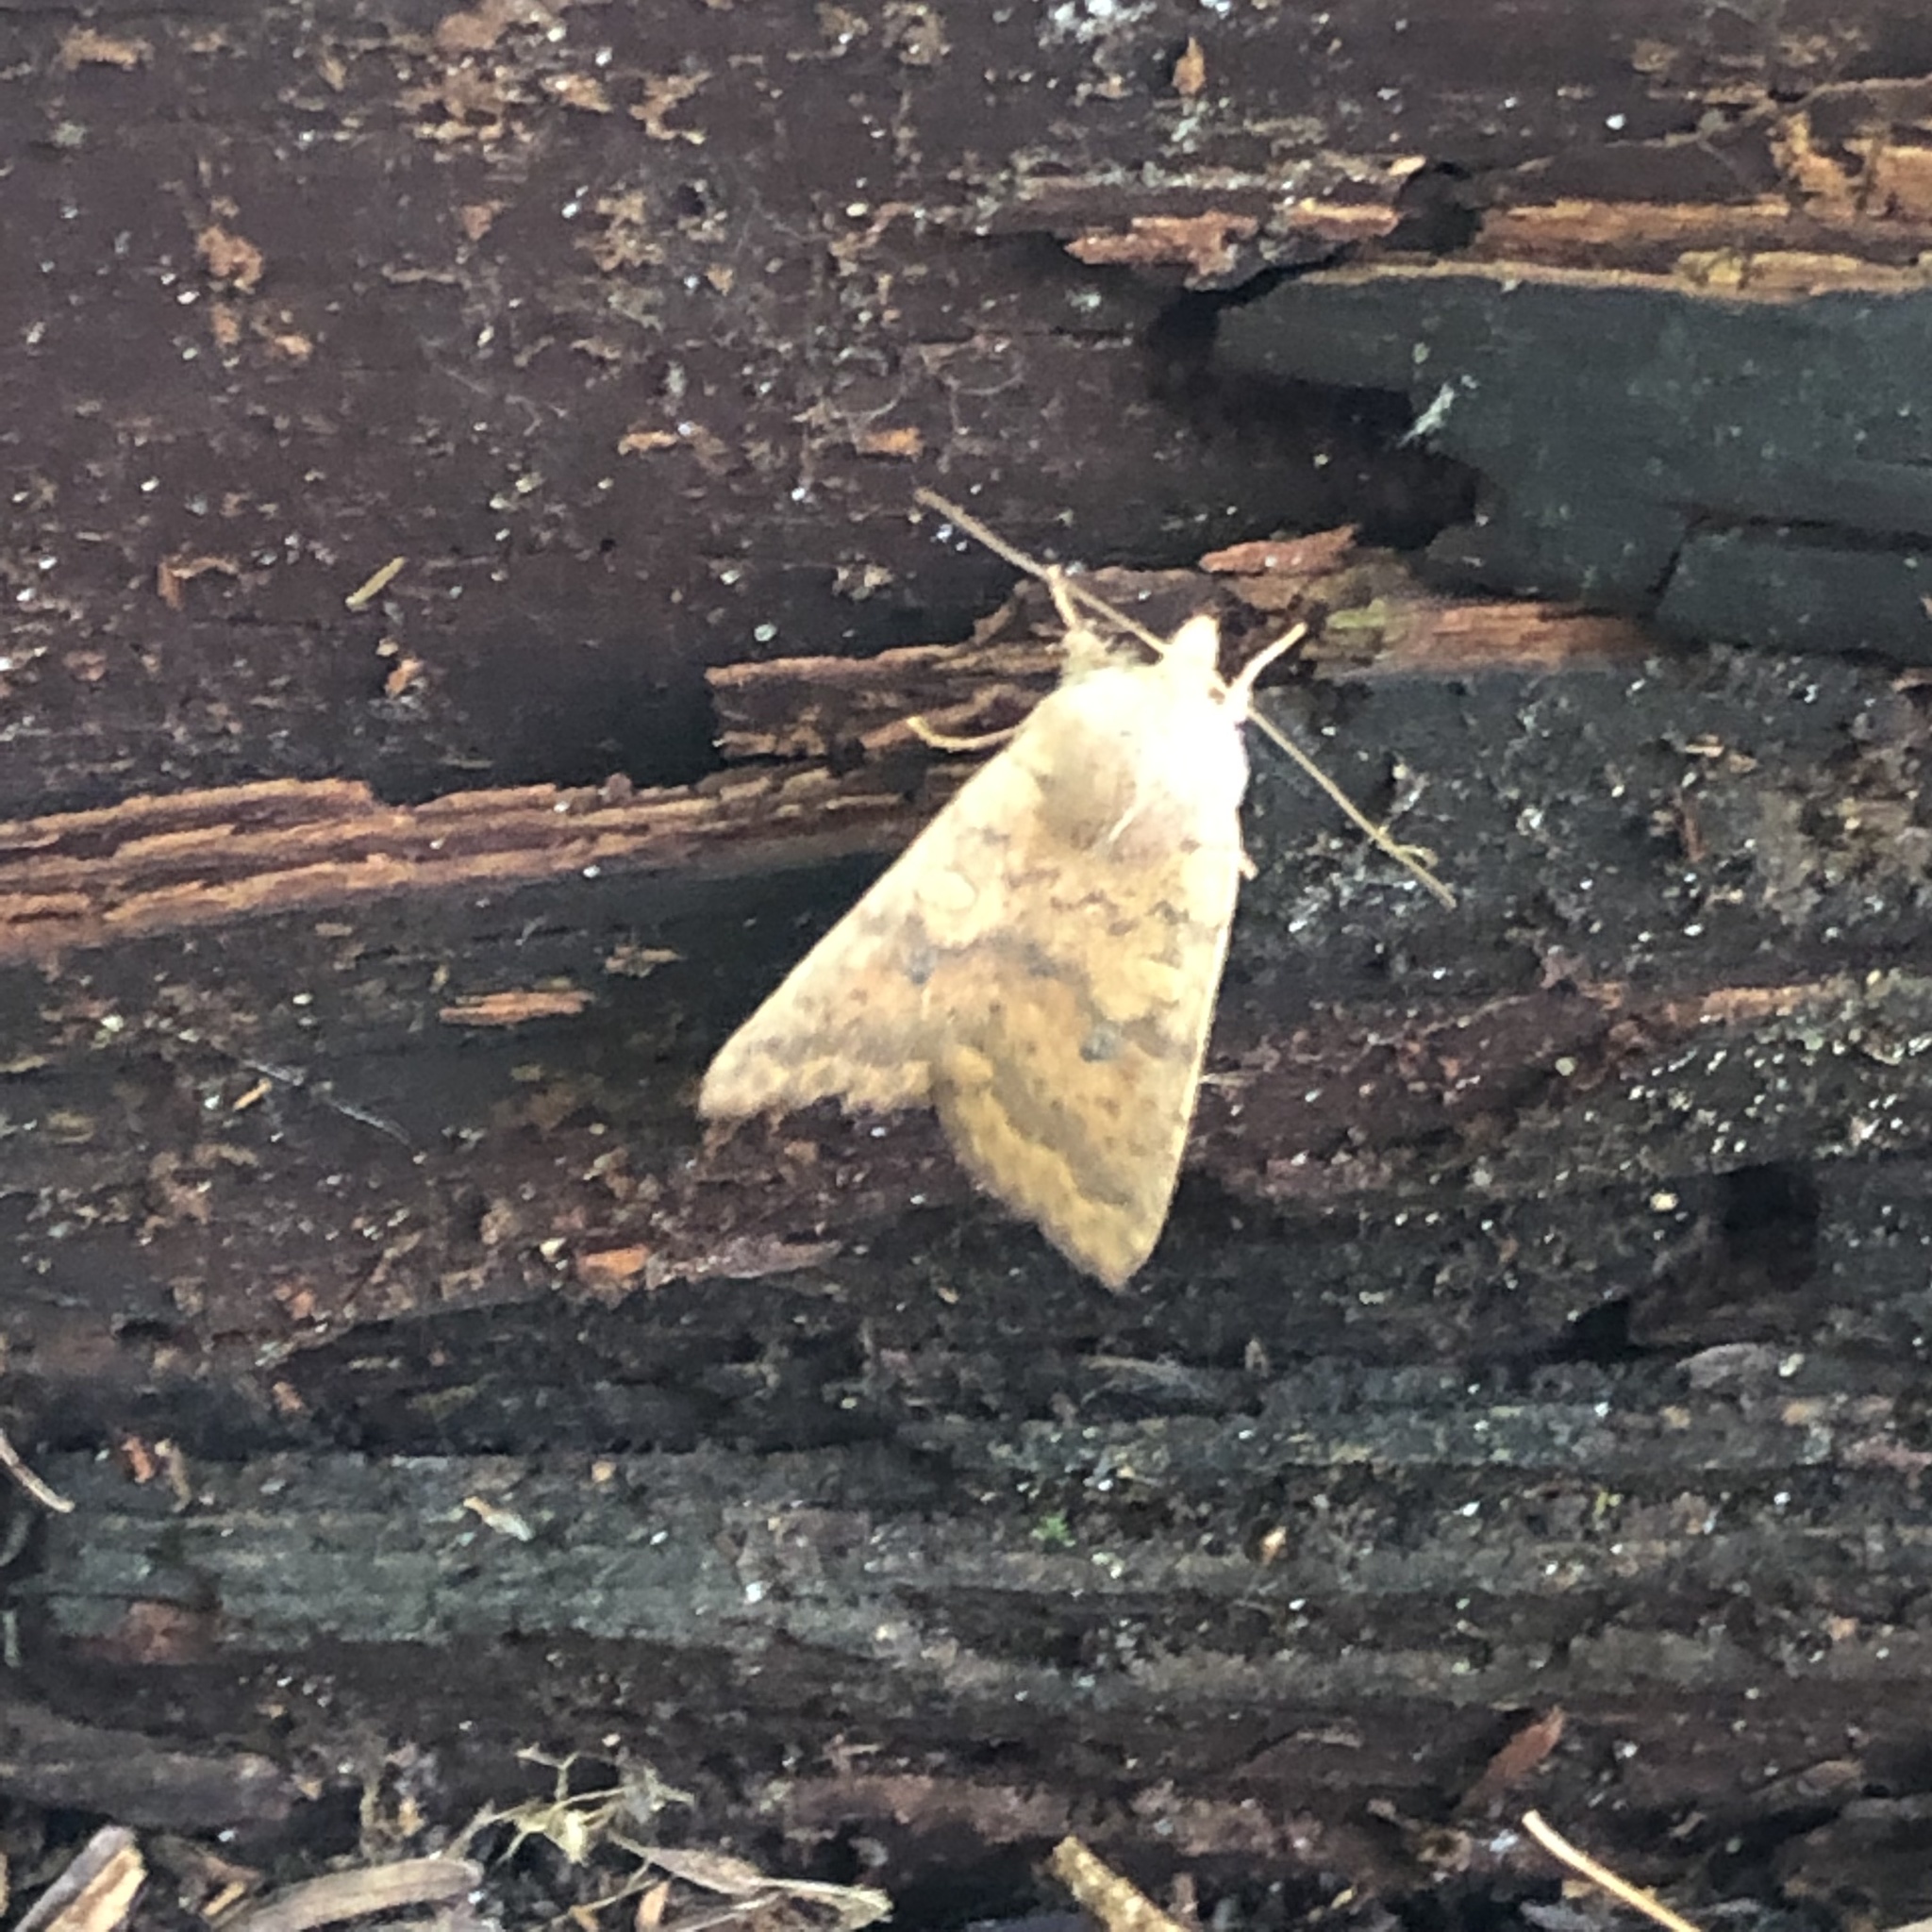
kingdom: Animalia
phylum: Arthropoda
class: Insecta
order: Lepidoptera
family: Noctuidae
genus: Agrochola
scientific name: Agrochola bicolorago
